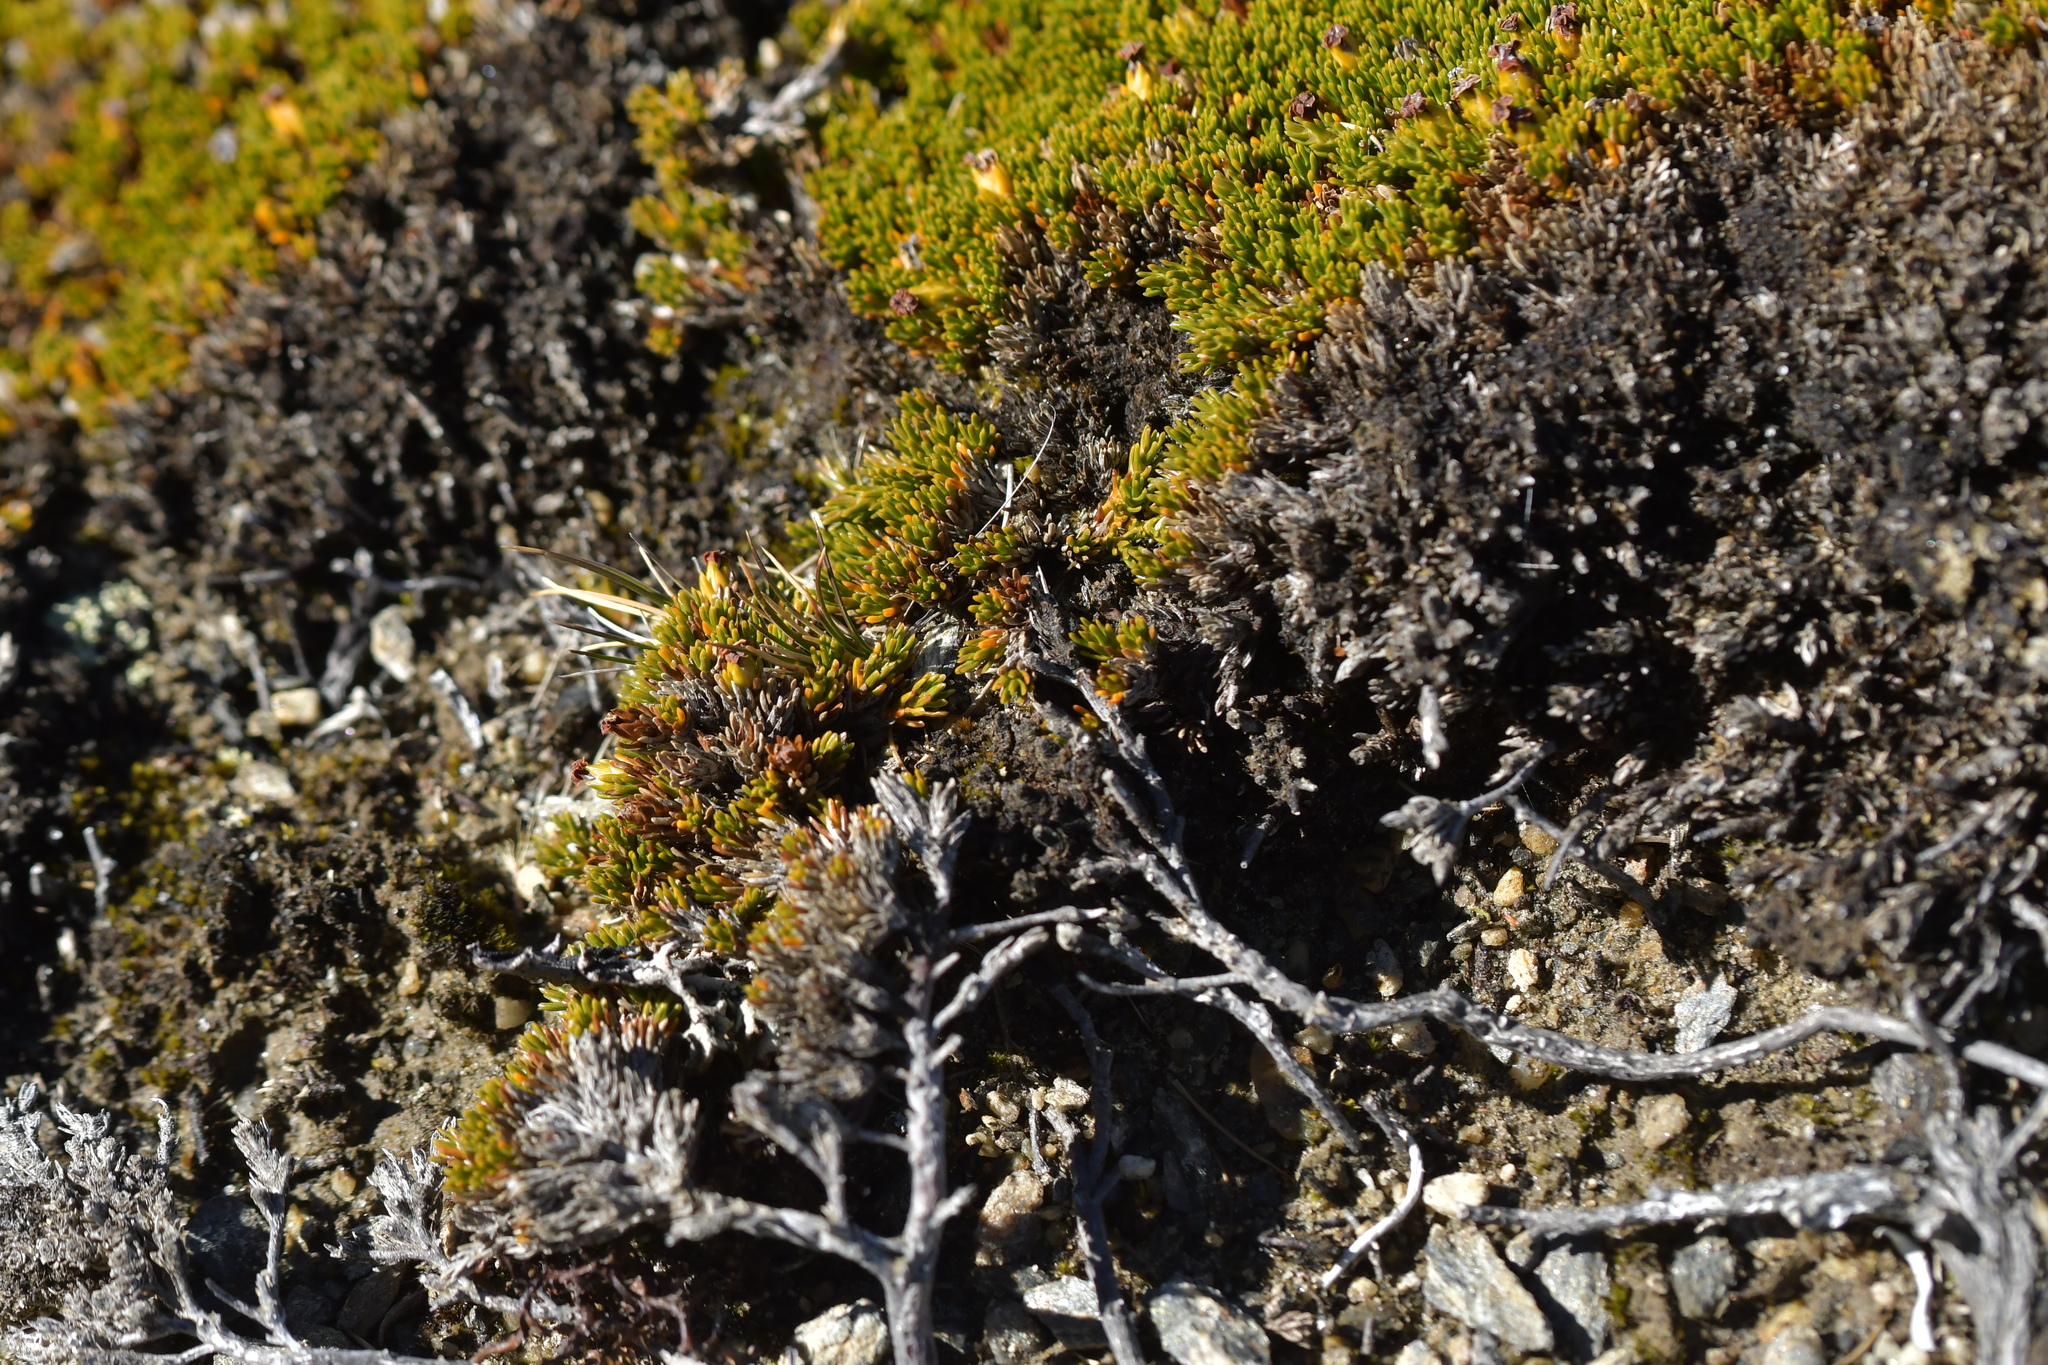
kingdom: Plantae
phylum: Tracheophyta
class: Magnoliopsida
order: Ericales
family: Ericaceae
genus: Dracophyllum
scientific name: Dracophyllum muscoides
